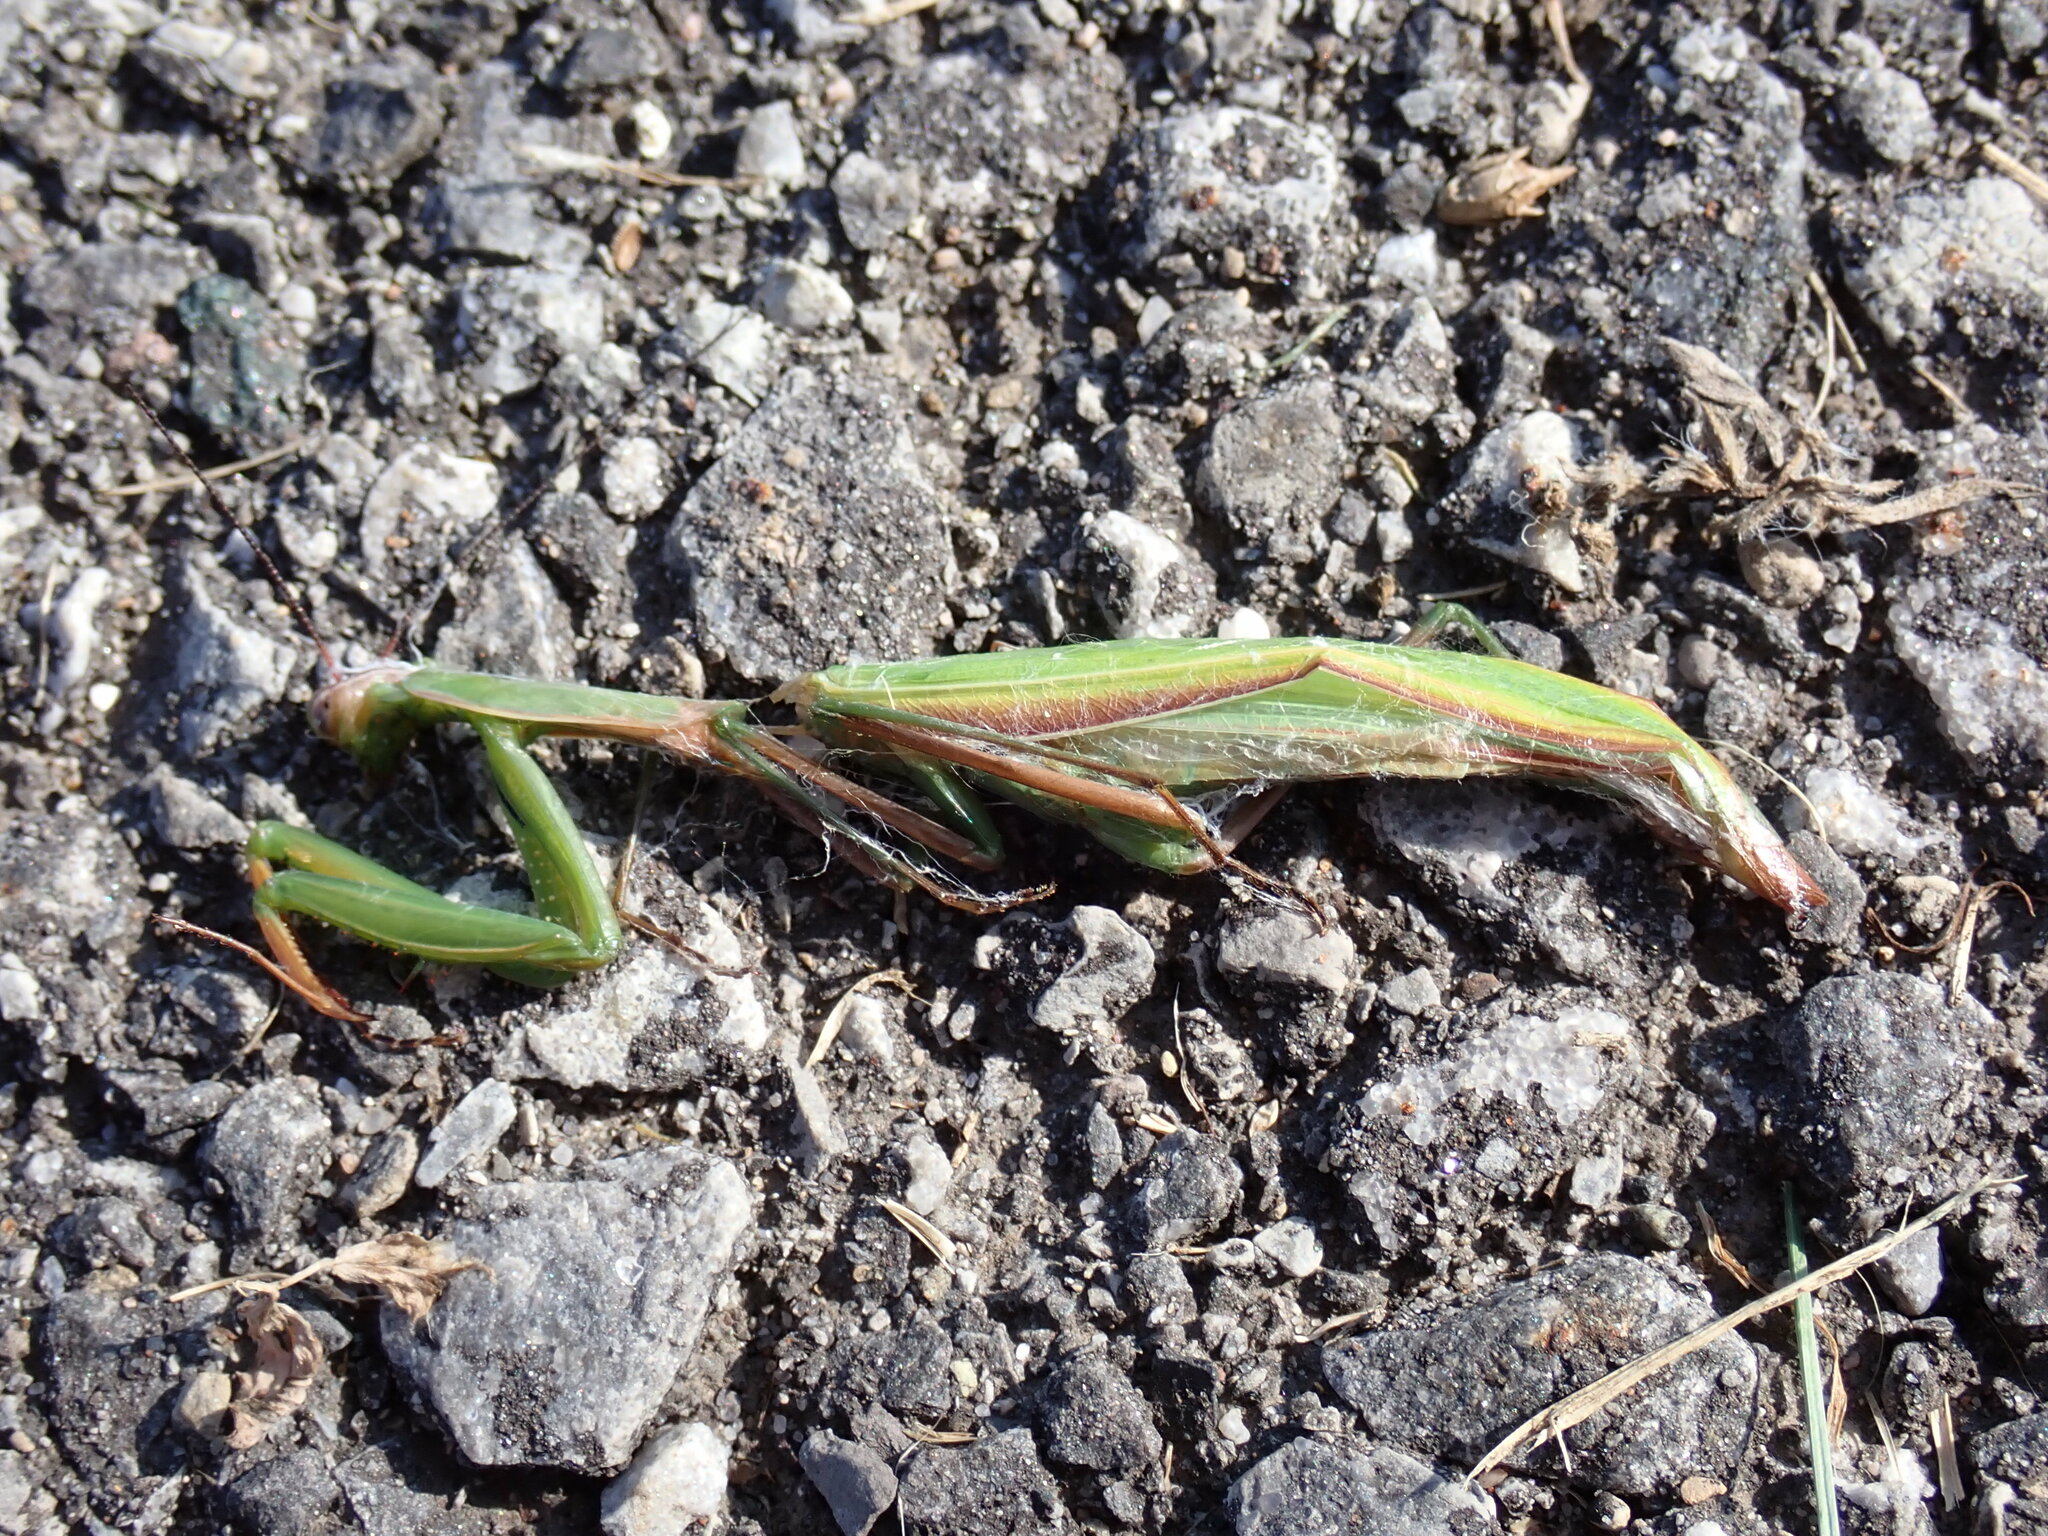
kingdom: Animalia
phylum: Arthropoda
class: Insecta
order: Mantodea
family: Mantidae
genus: Mantis
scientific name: Mantis religiosa
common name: Praying mantis
